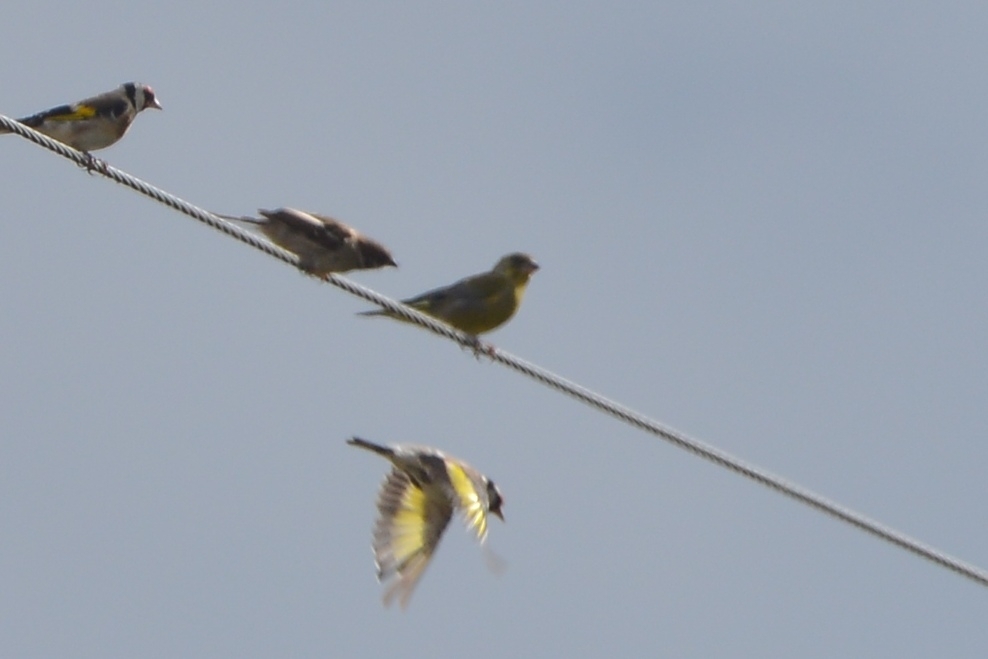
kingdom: Plantae
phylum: Tracheophyta
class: Liliopsida
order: Poales
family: Poaceae
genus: Chloris
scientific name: Chloris chloris
